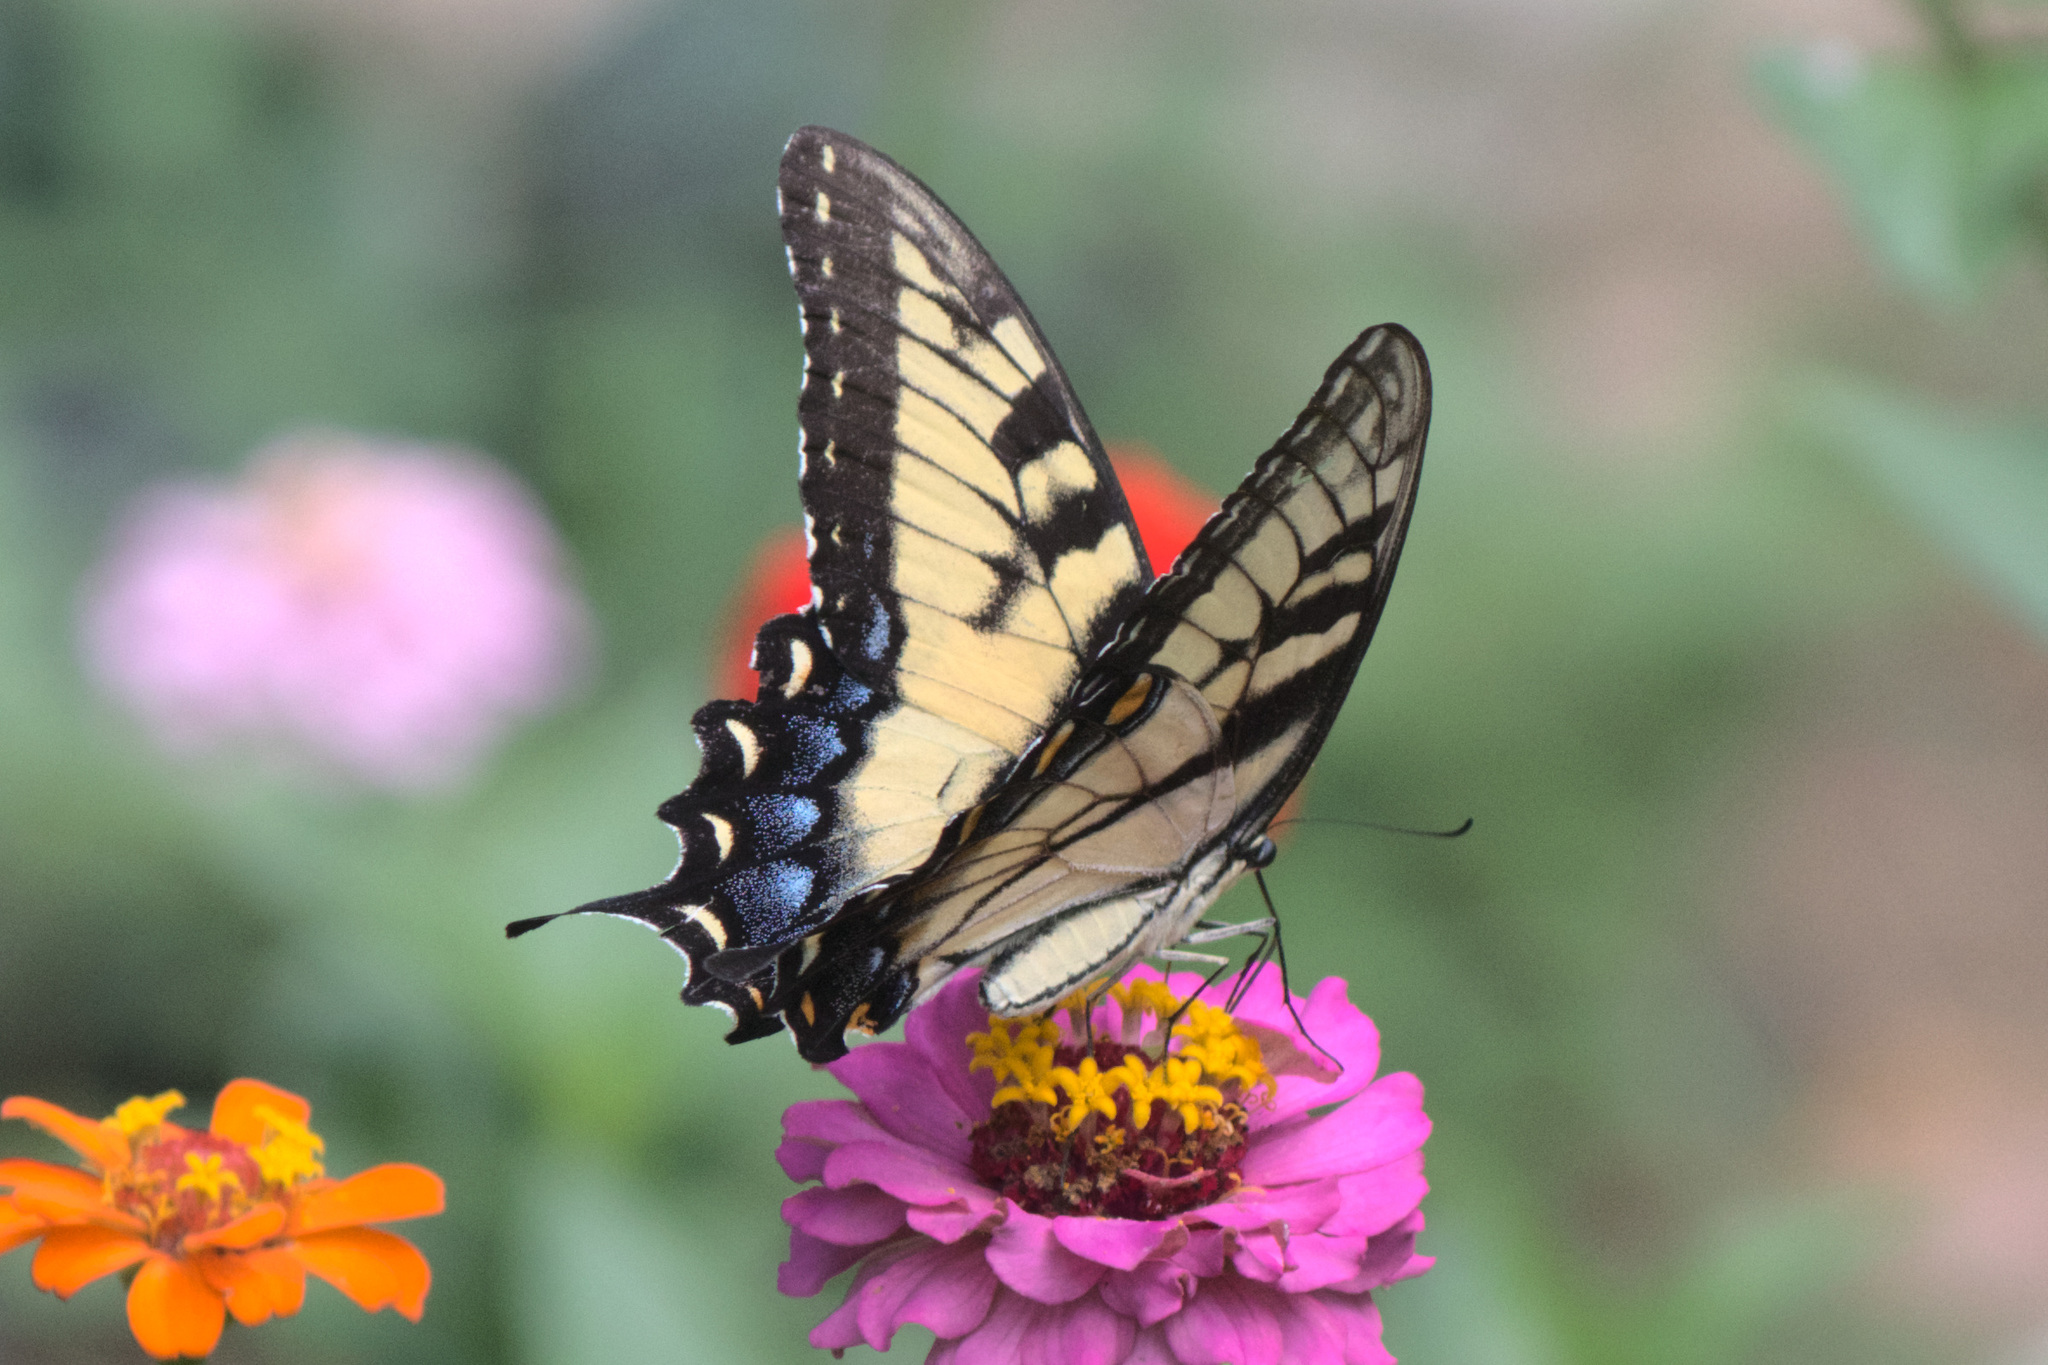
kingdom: Animalia
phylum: Arthropoda
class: Insecta
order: Lepidoptera
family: Papilionidae
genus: Papilio
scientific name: Papilio glaucus
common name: Tiger swallowtail
